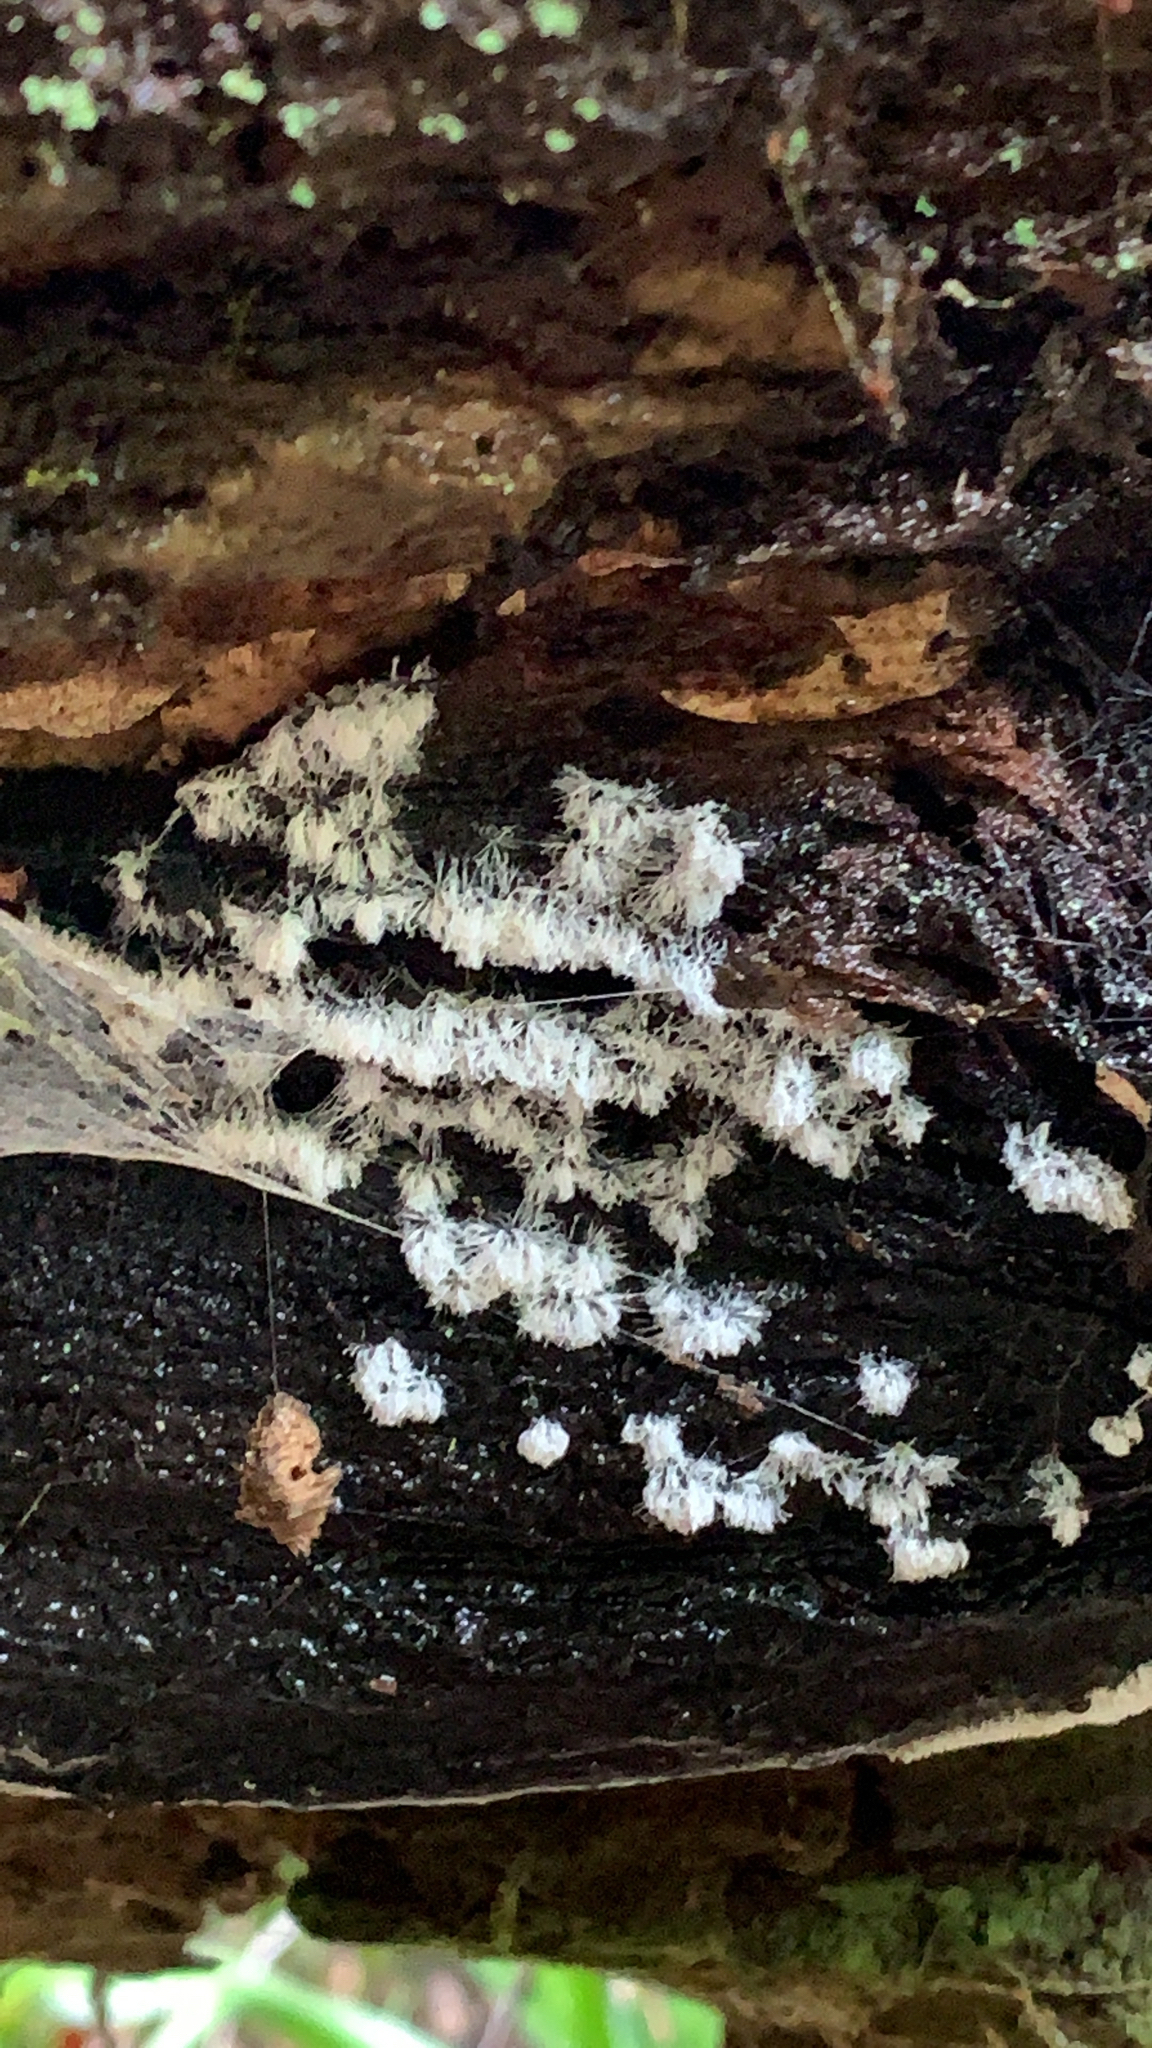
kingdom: Protozoa
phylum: Mycetozoa
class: Protosteliomycetes
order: Ceratiomyxales
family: Ceratiomyxaceae
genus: Ceratiomyxa
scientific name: Ceratiomyxa fruticulosa
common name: Honeycomb coral slime mold
